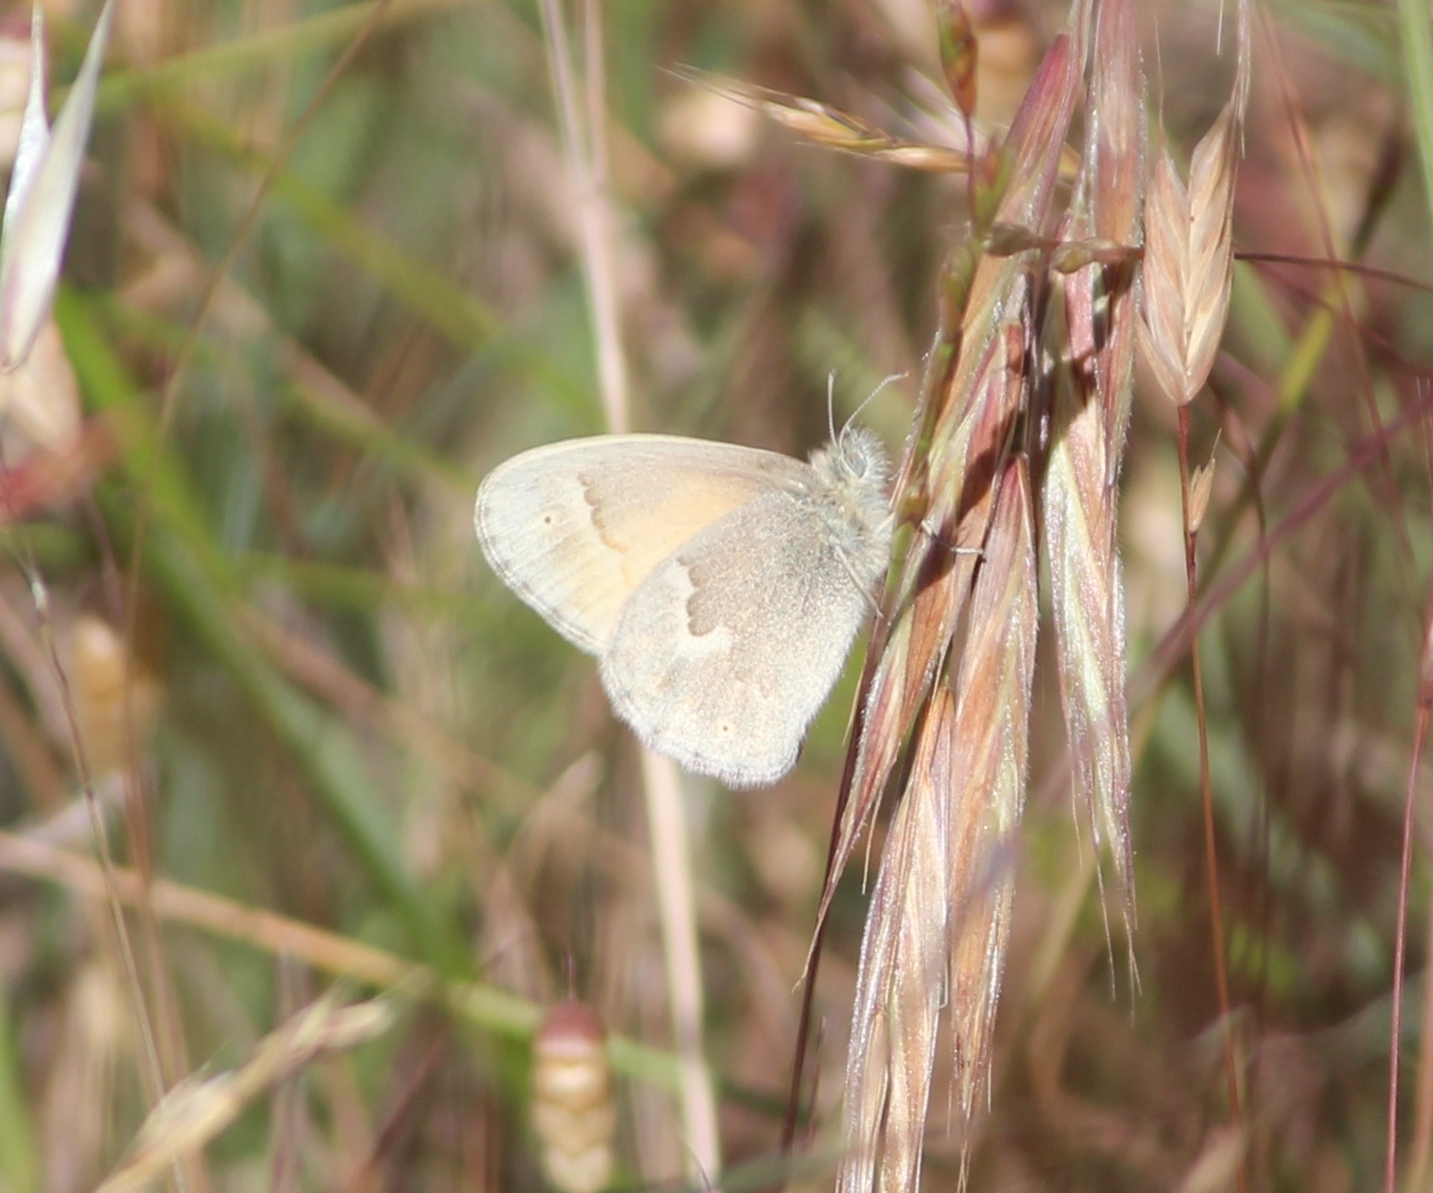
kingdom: Animalia
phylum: Arthropoda
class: Insecta
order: Lepidoptera
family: Nymphalidae
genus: Coenonympha
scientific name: Coenonympha california
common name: Common ringlet
